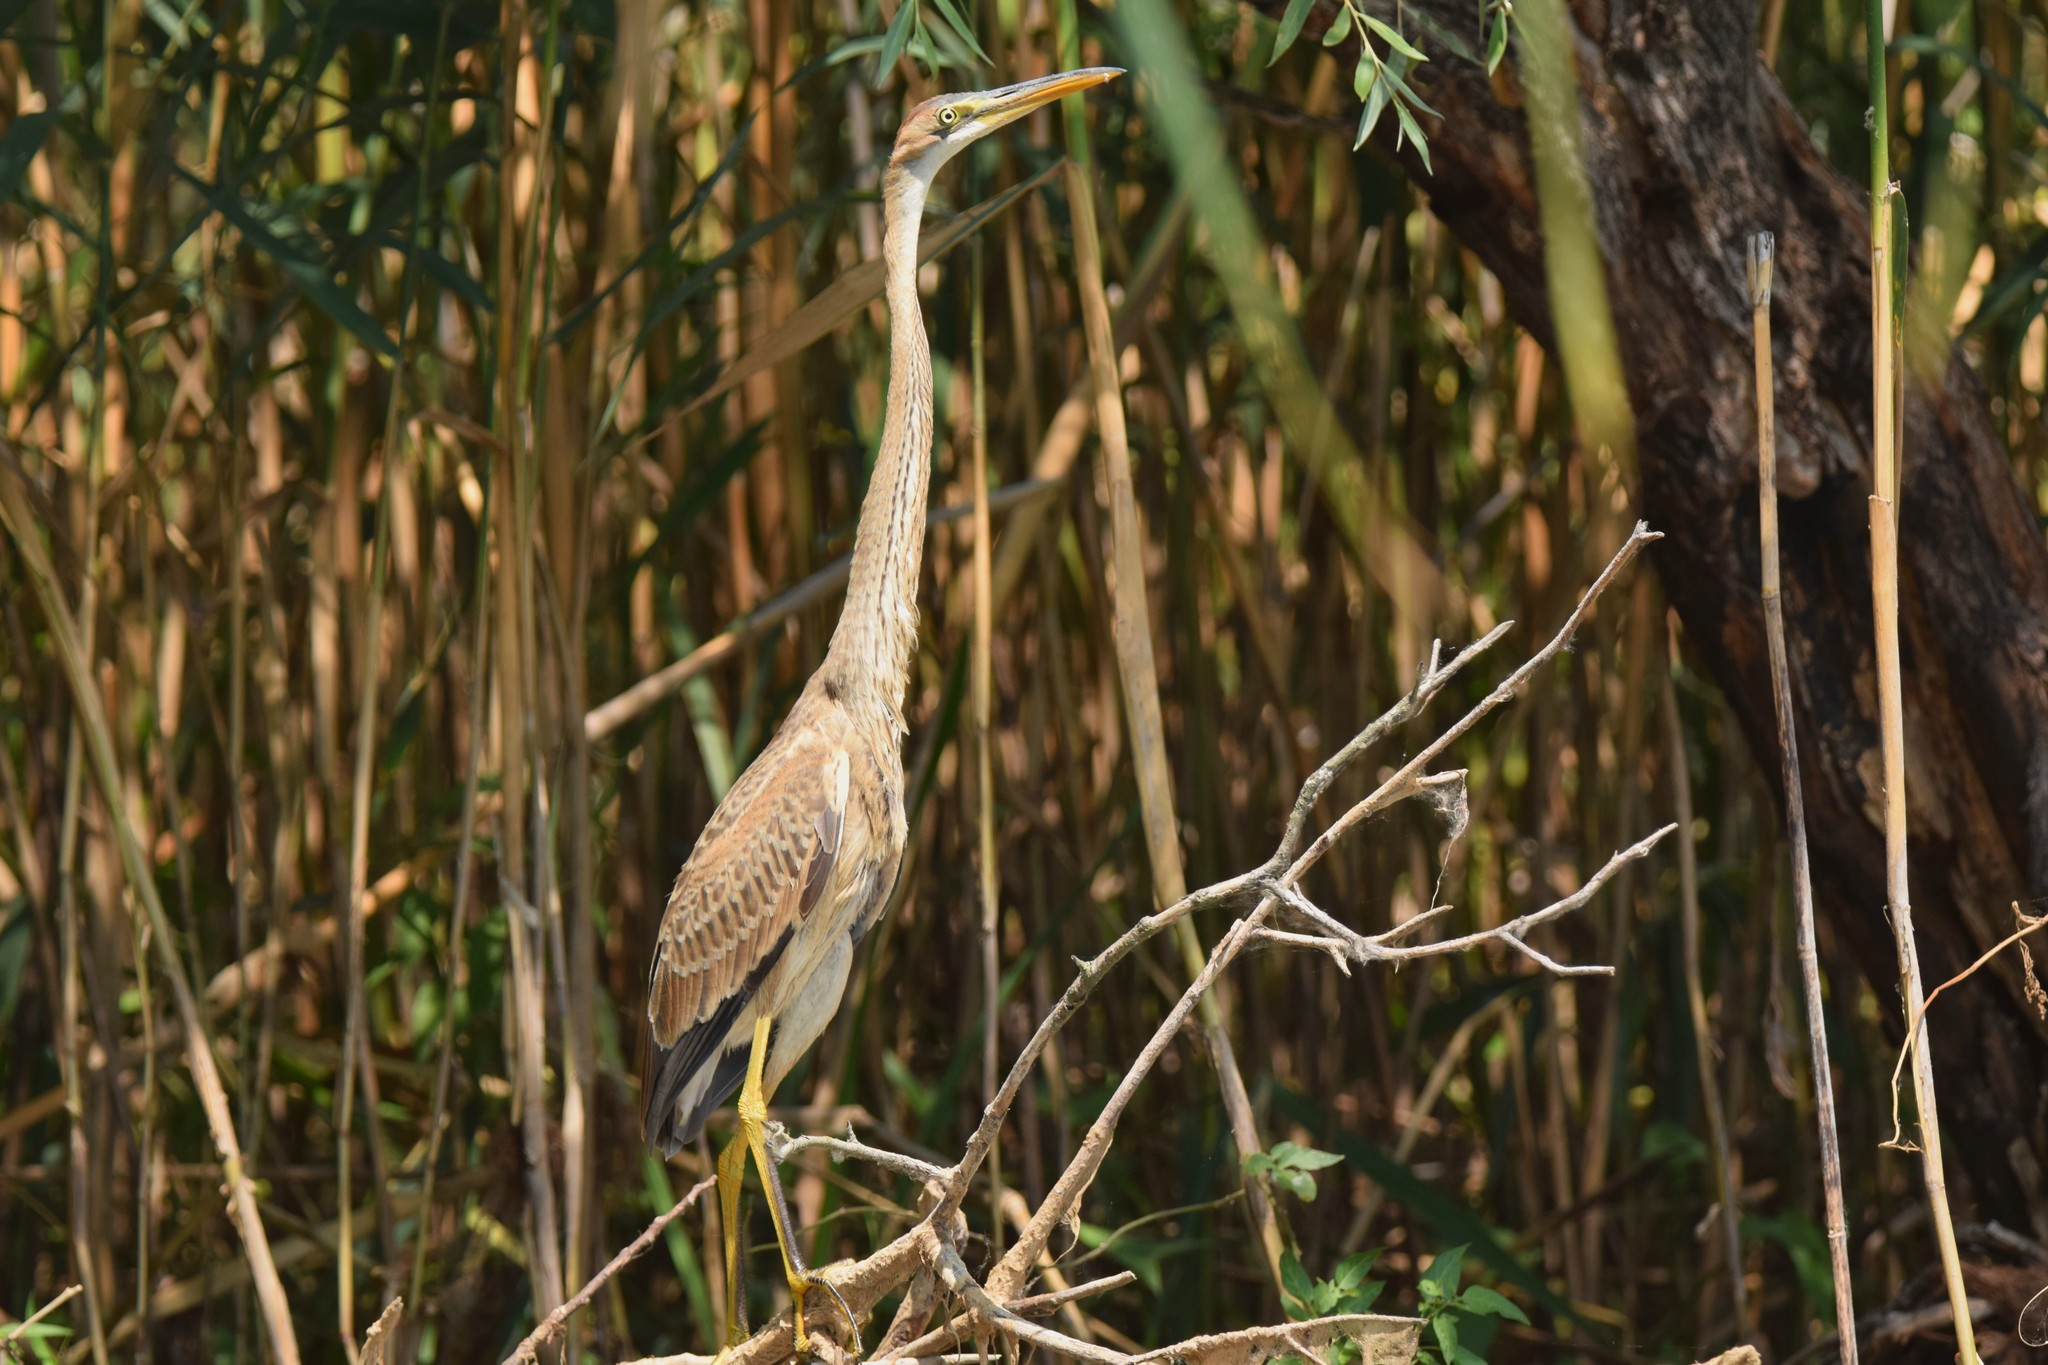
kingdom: Animalia
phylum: Chordata
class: Aves
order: Pelecaniformes
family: Ardeidae
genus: Ardea
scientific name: Ardea purpurea
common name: Purple heron
